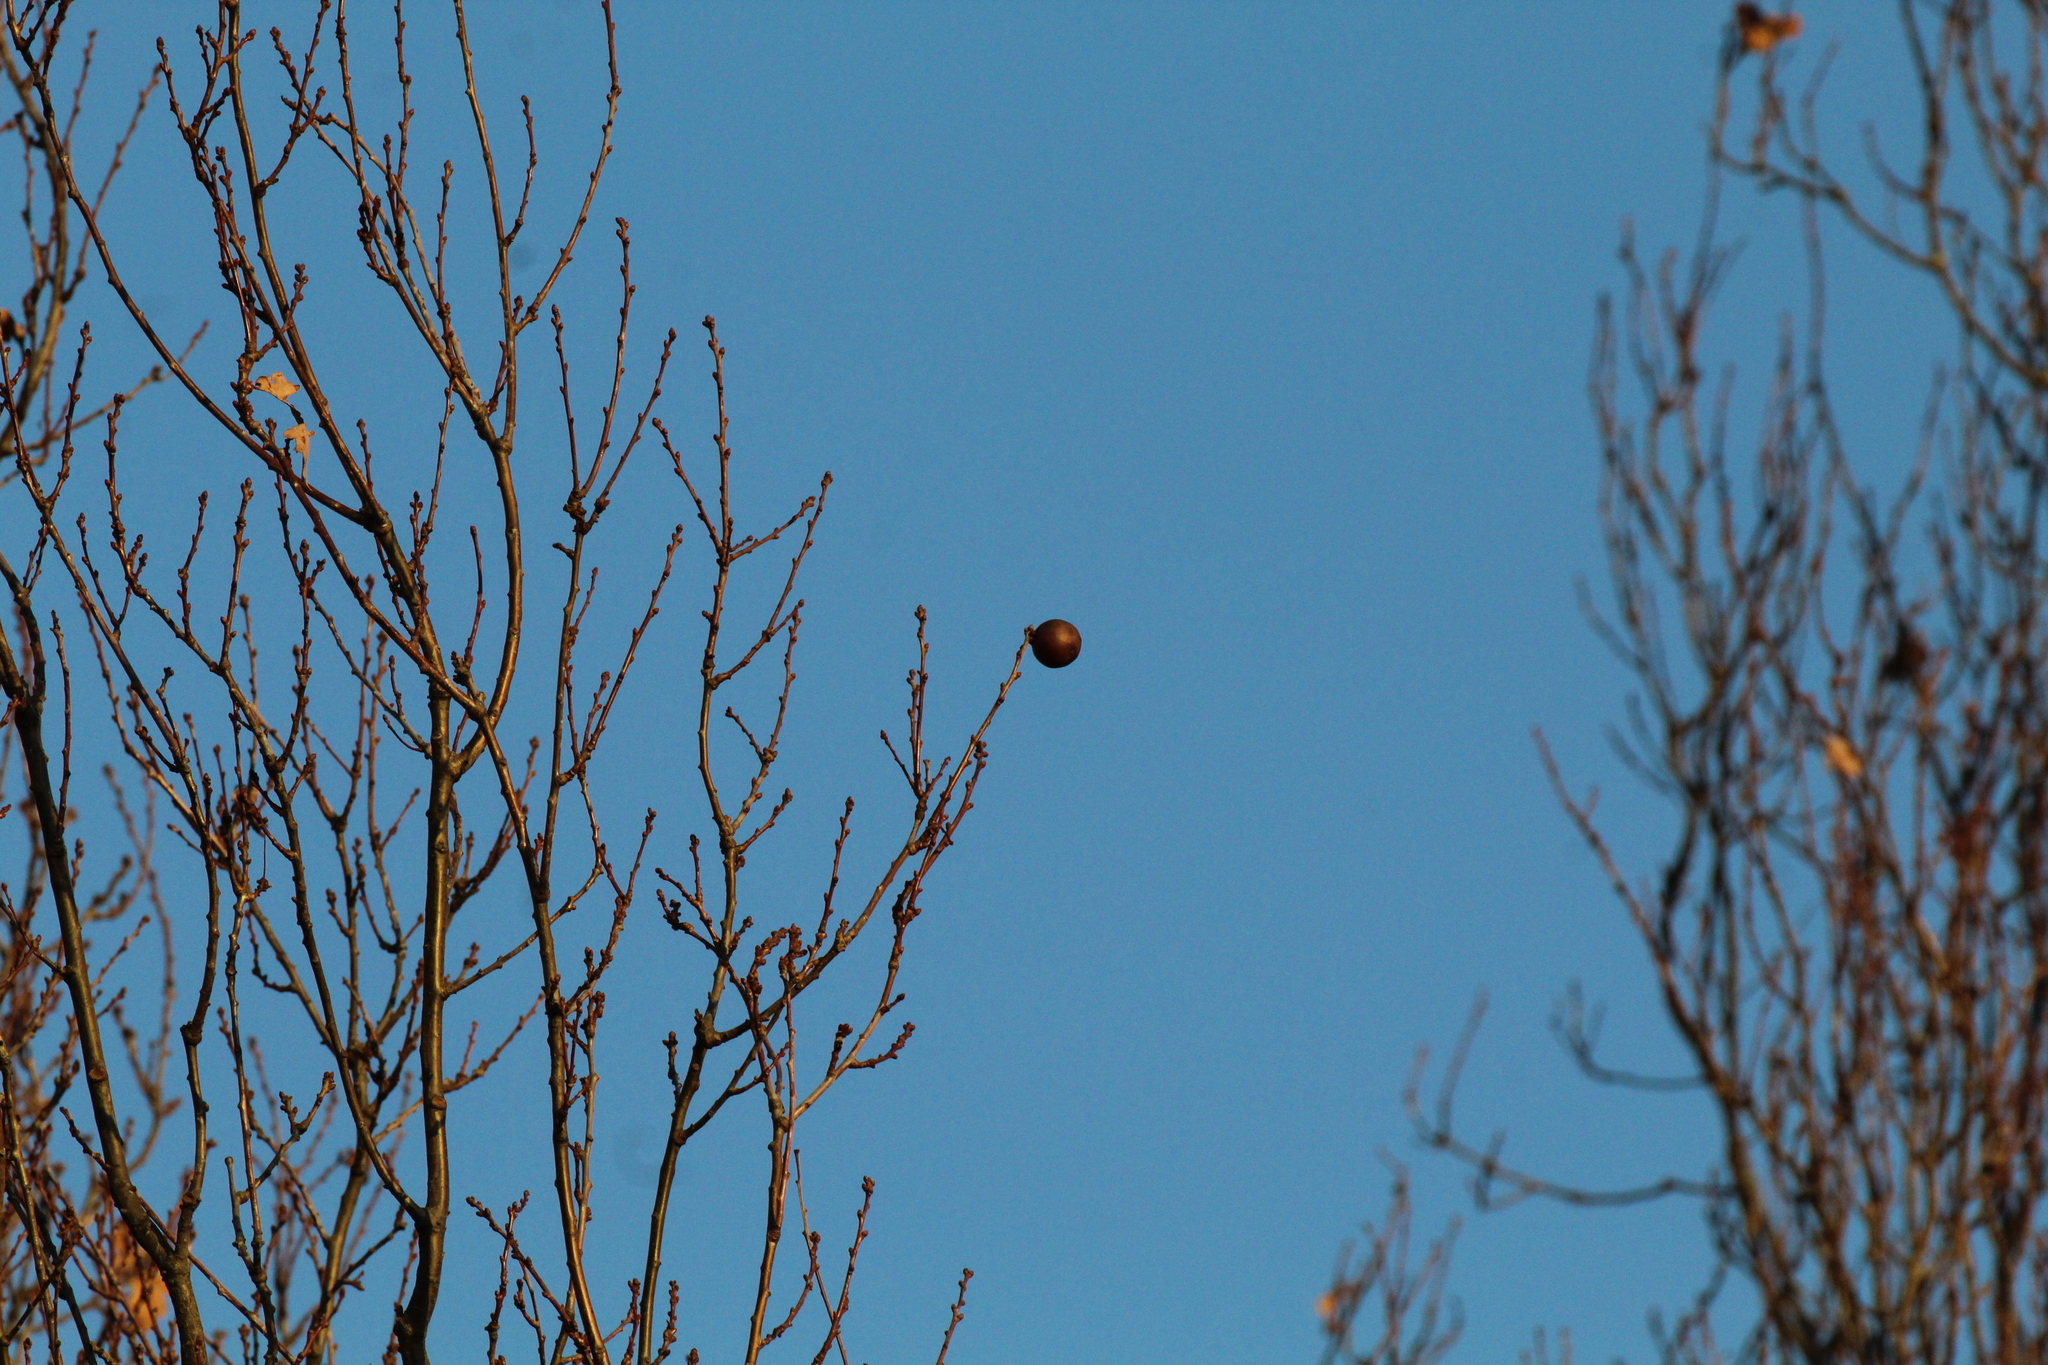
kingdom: Animalia
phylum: Arthropoda
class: Insecta
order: Hymenoptera
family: Cynipidae
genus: Andricus
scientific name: Andricus kollari
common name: Marble gall
